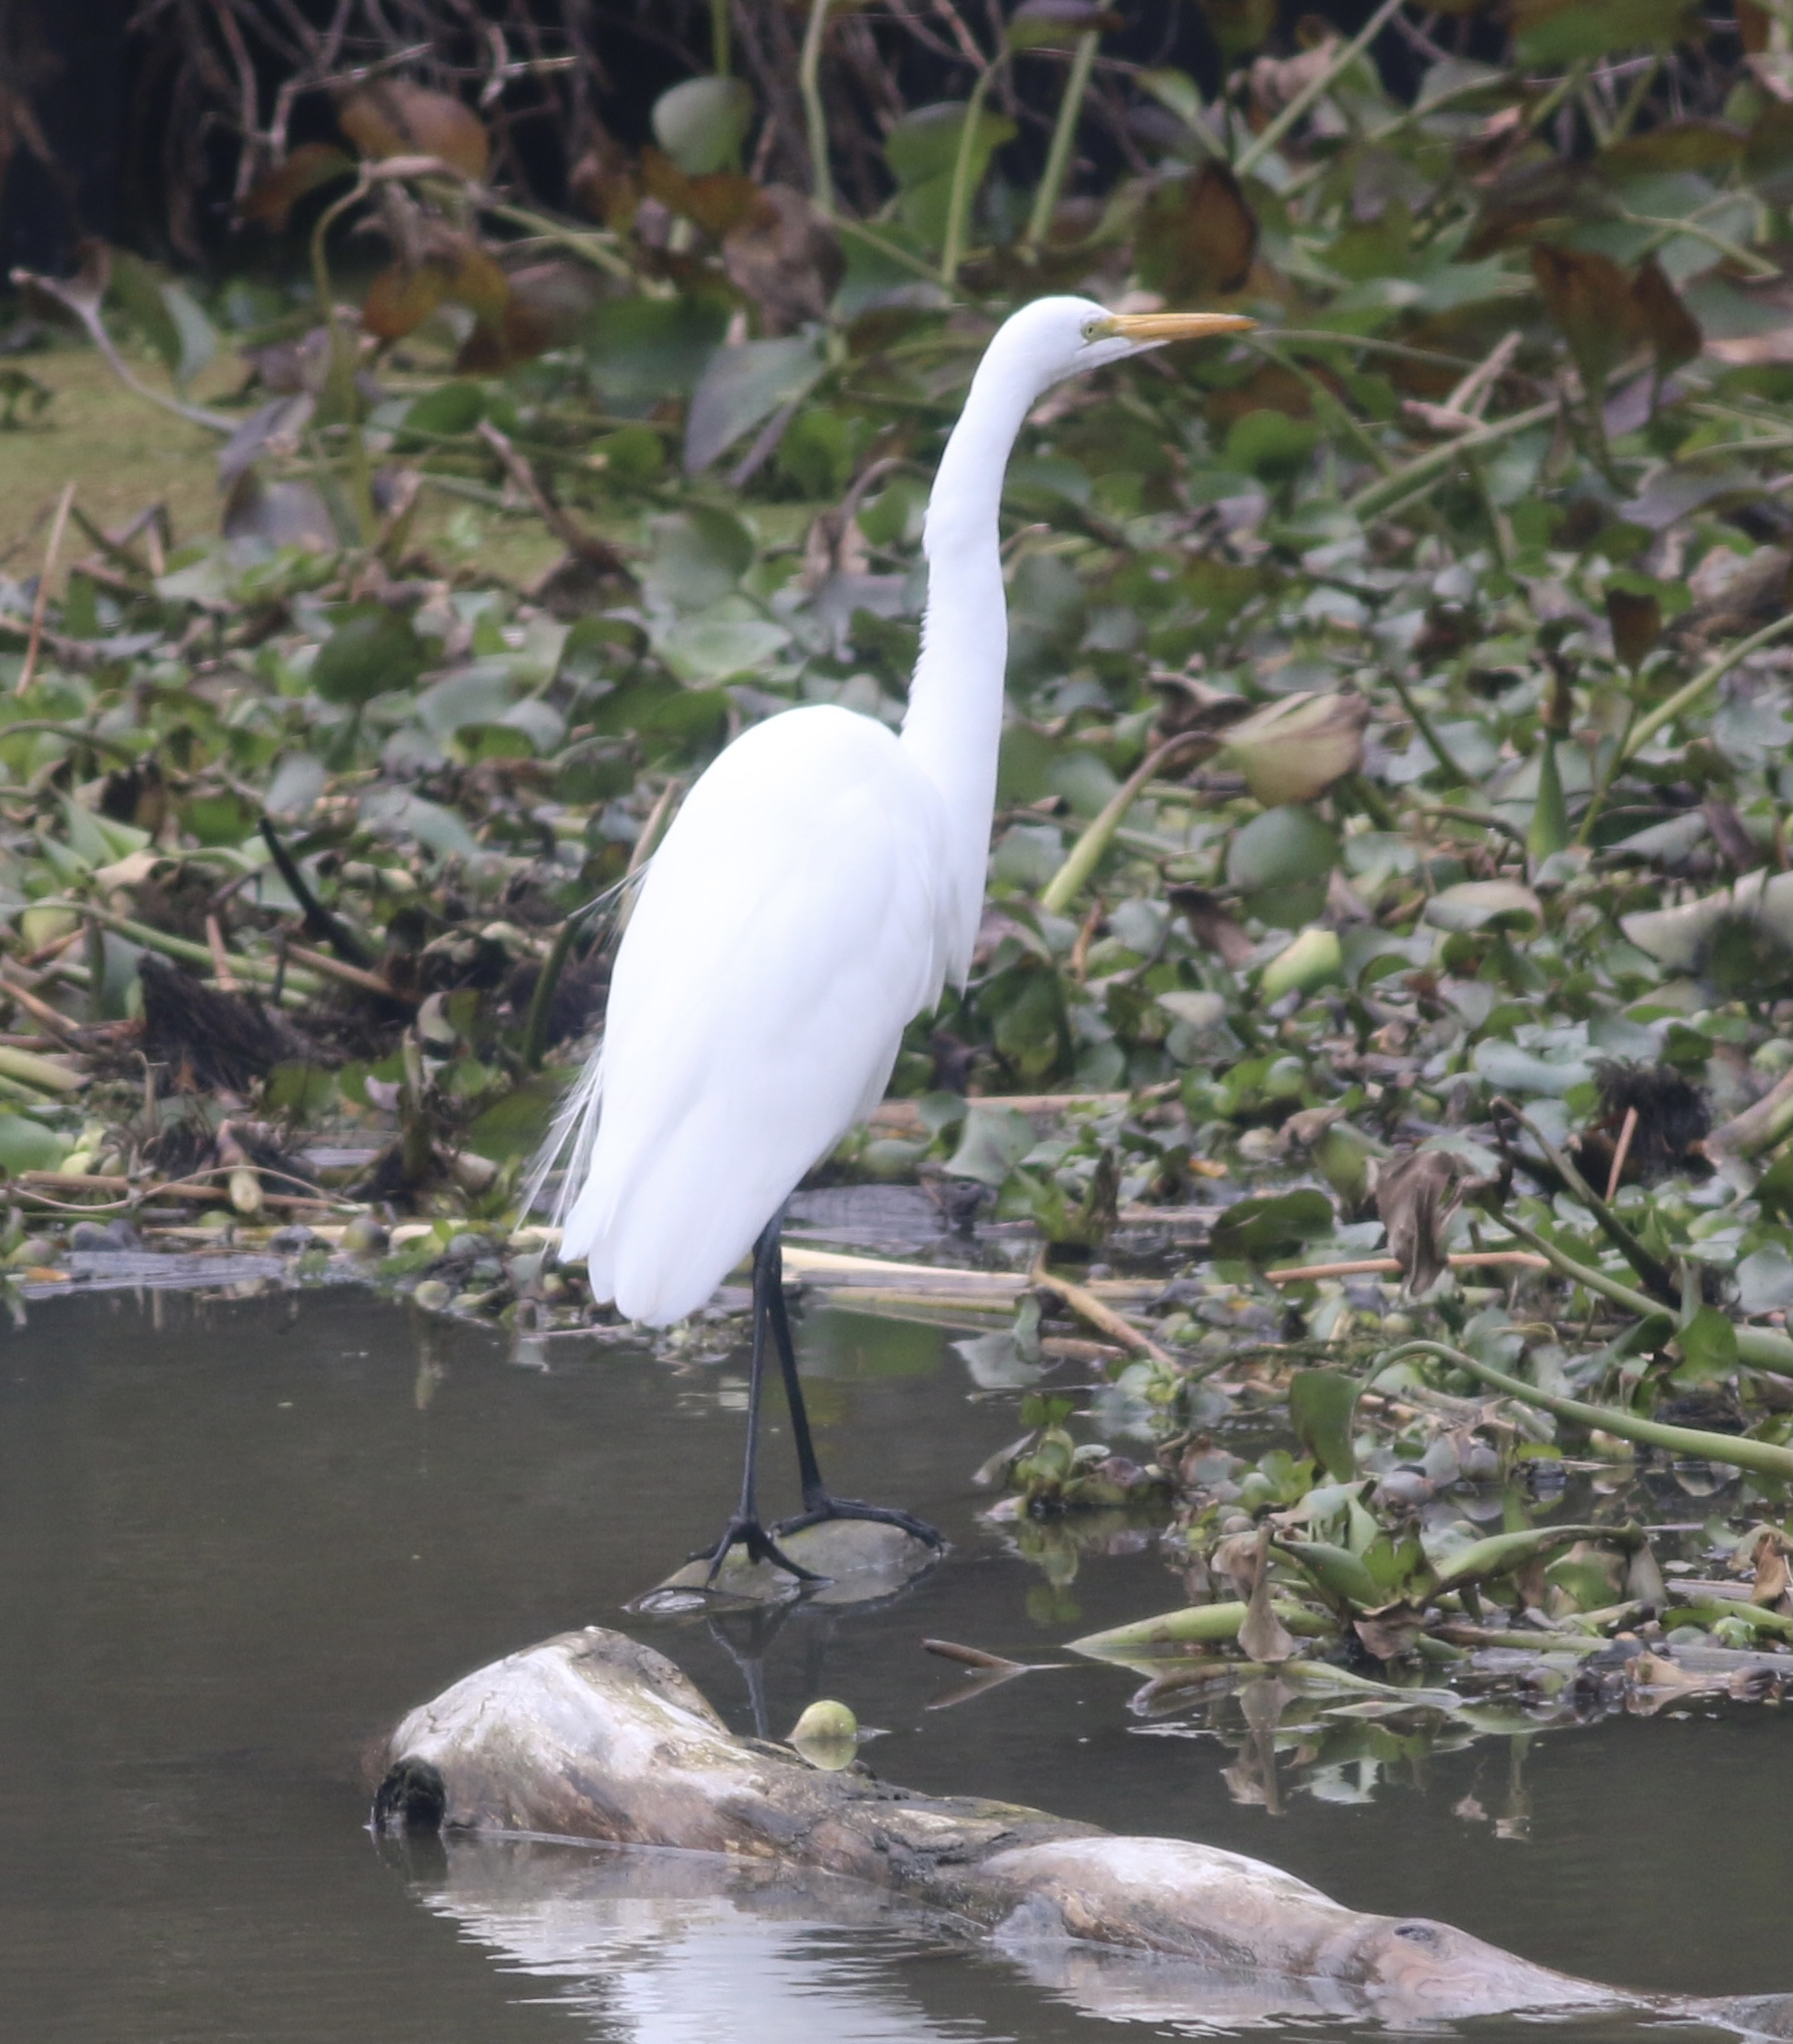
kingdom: Animalia
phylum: Chordata
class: Aves
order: Pelecaniformes
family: Ardeidae
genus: Ardea
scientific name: Ardea alba
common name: Great egret
